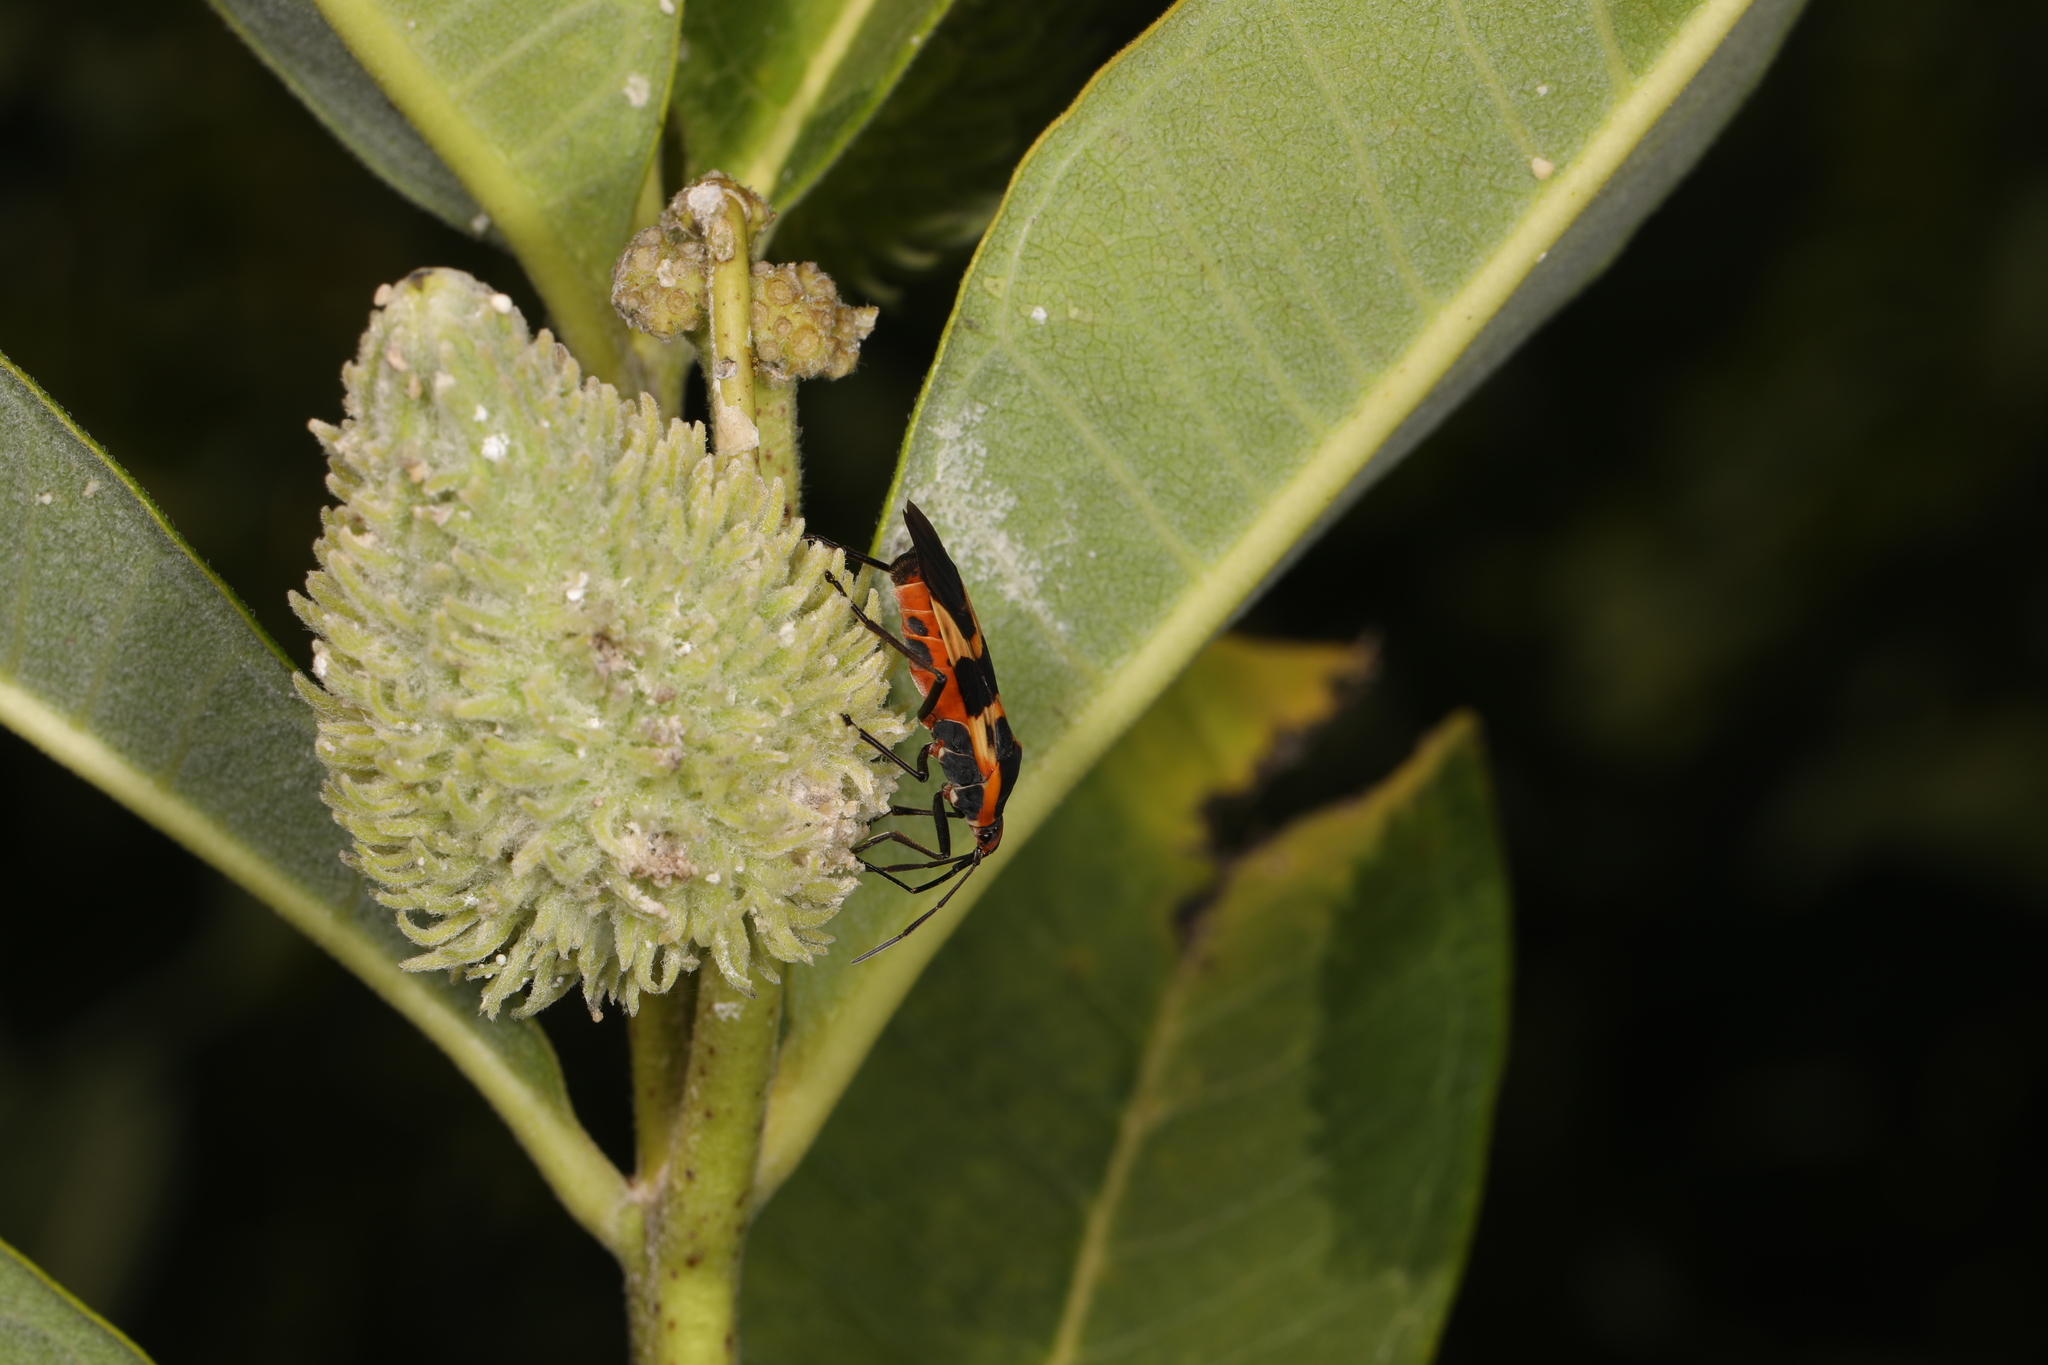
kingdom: Animalia
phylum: Arthropoda
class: Insecta
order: Hemiptera
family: Lygaeidae
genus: Oncopeltus
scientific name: Oncopeltus fasciatus
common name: Large milkweed bug
